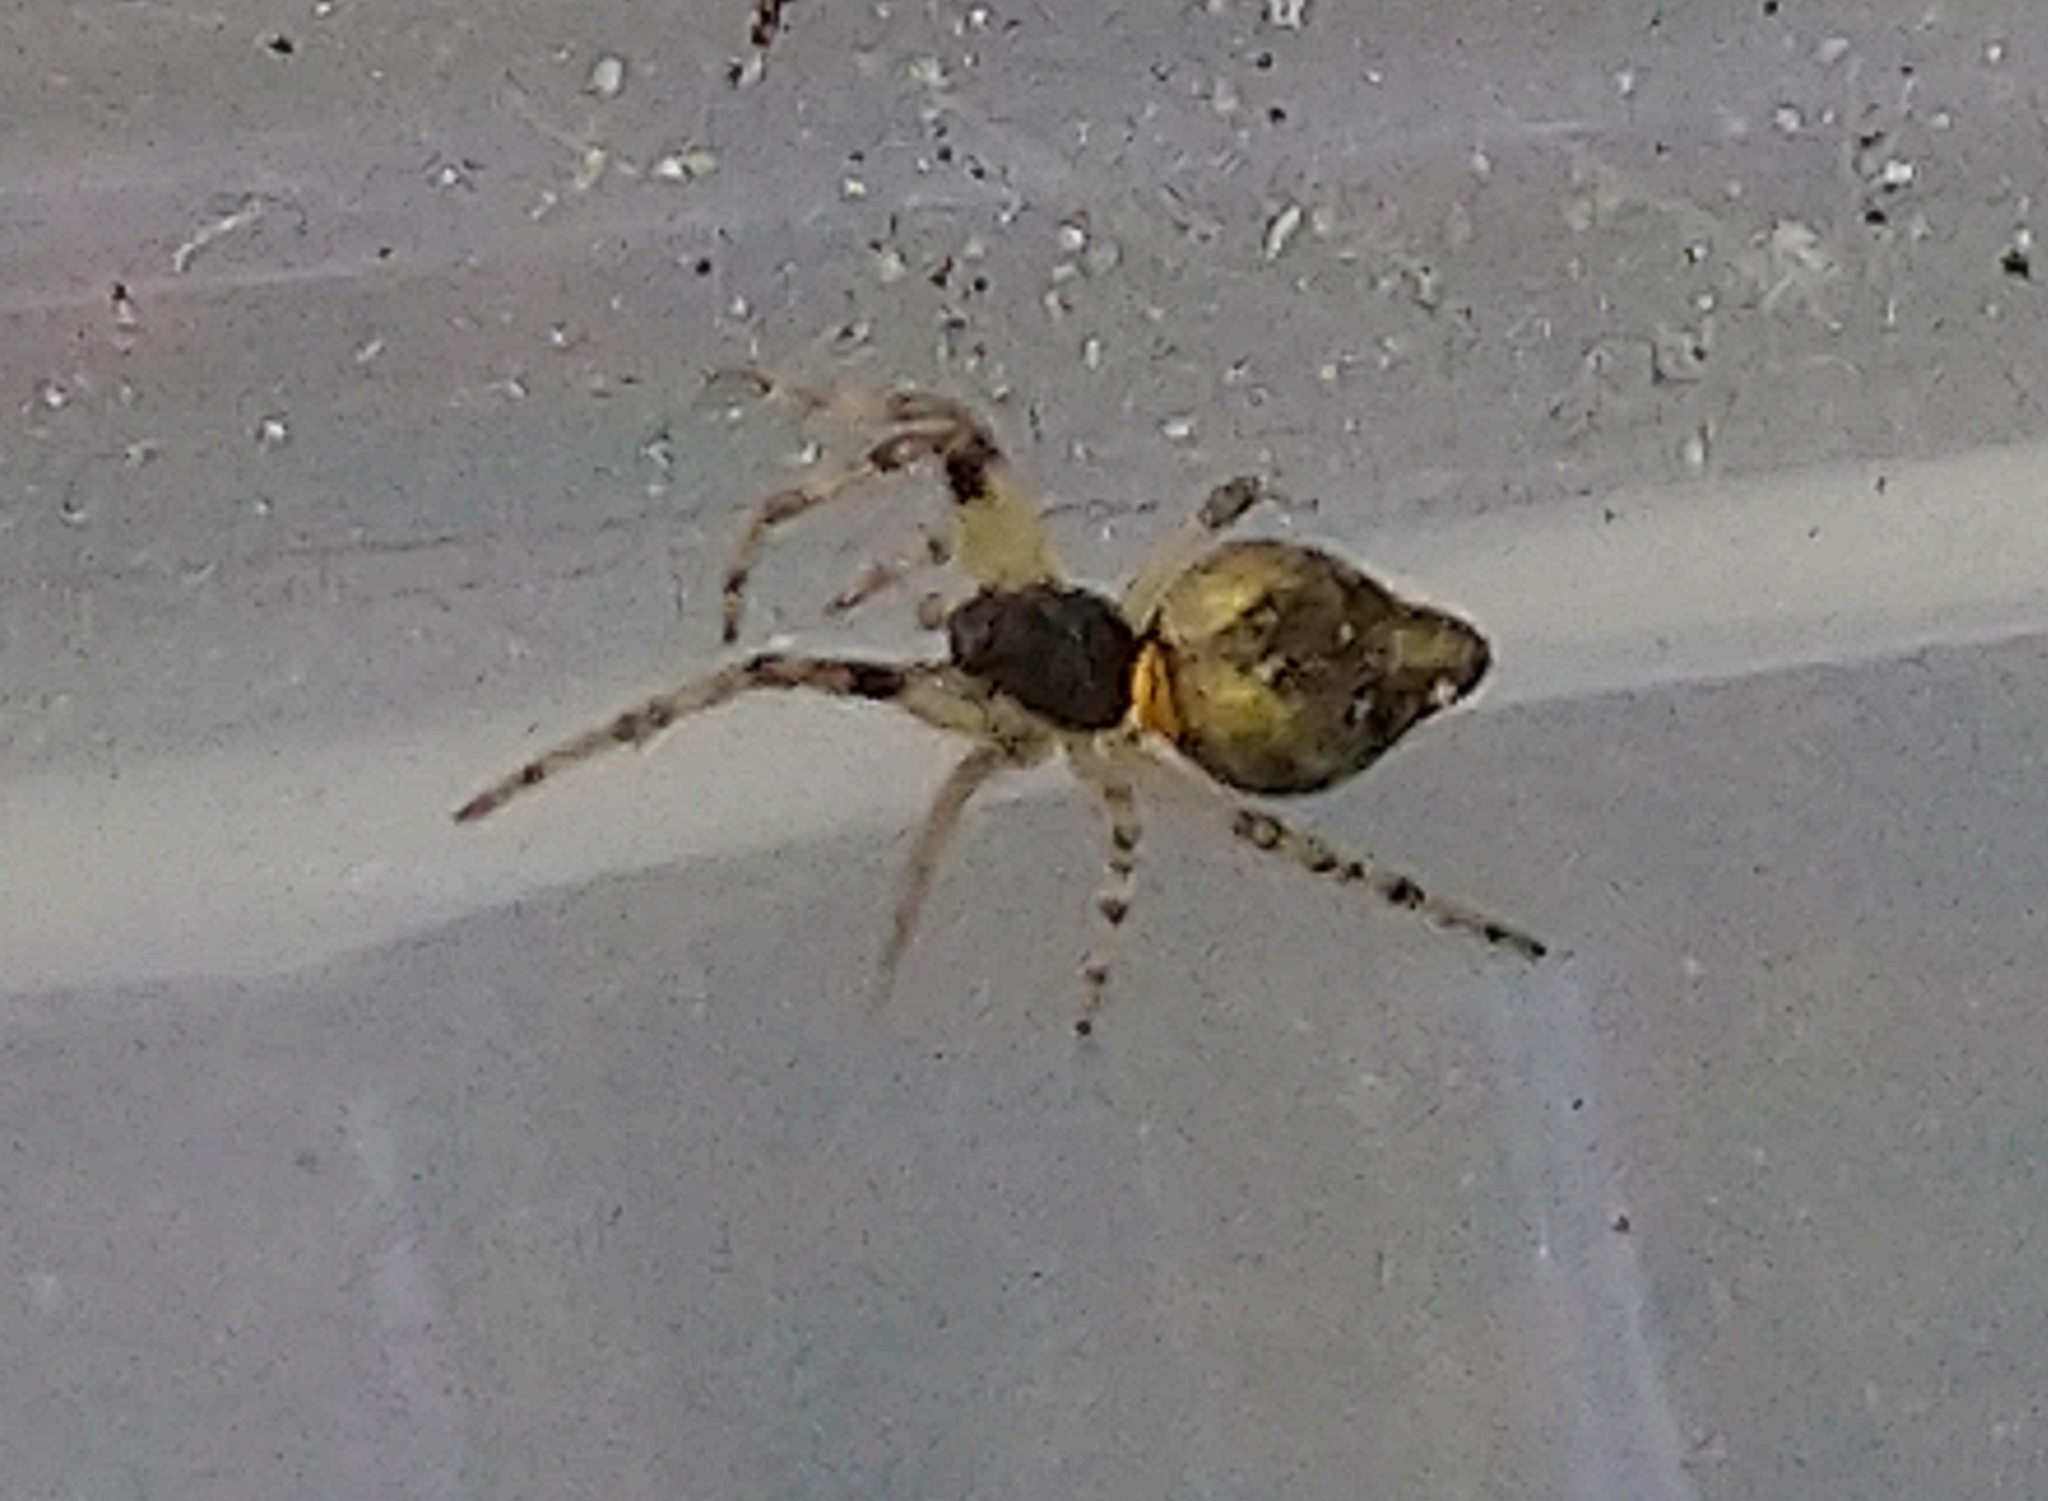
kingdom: Animalia
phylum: Arthropoda
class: Arachnida
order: Araneae
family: Araneidae
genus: Cyclosa
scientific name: Cyclosa conica
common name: Conical trashline orbweaver
